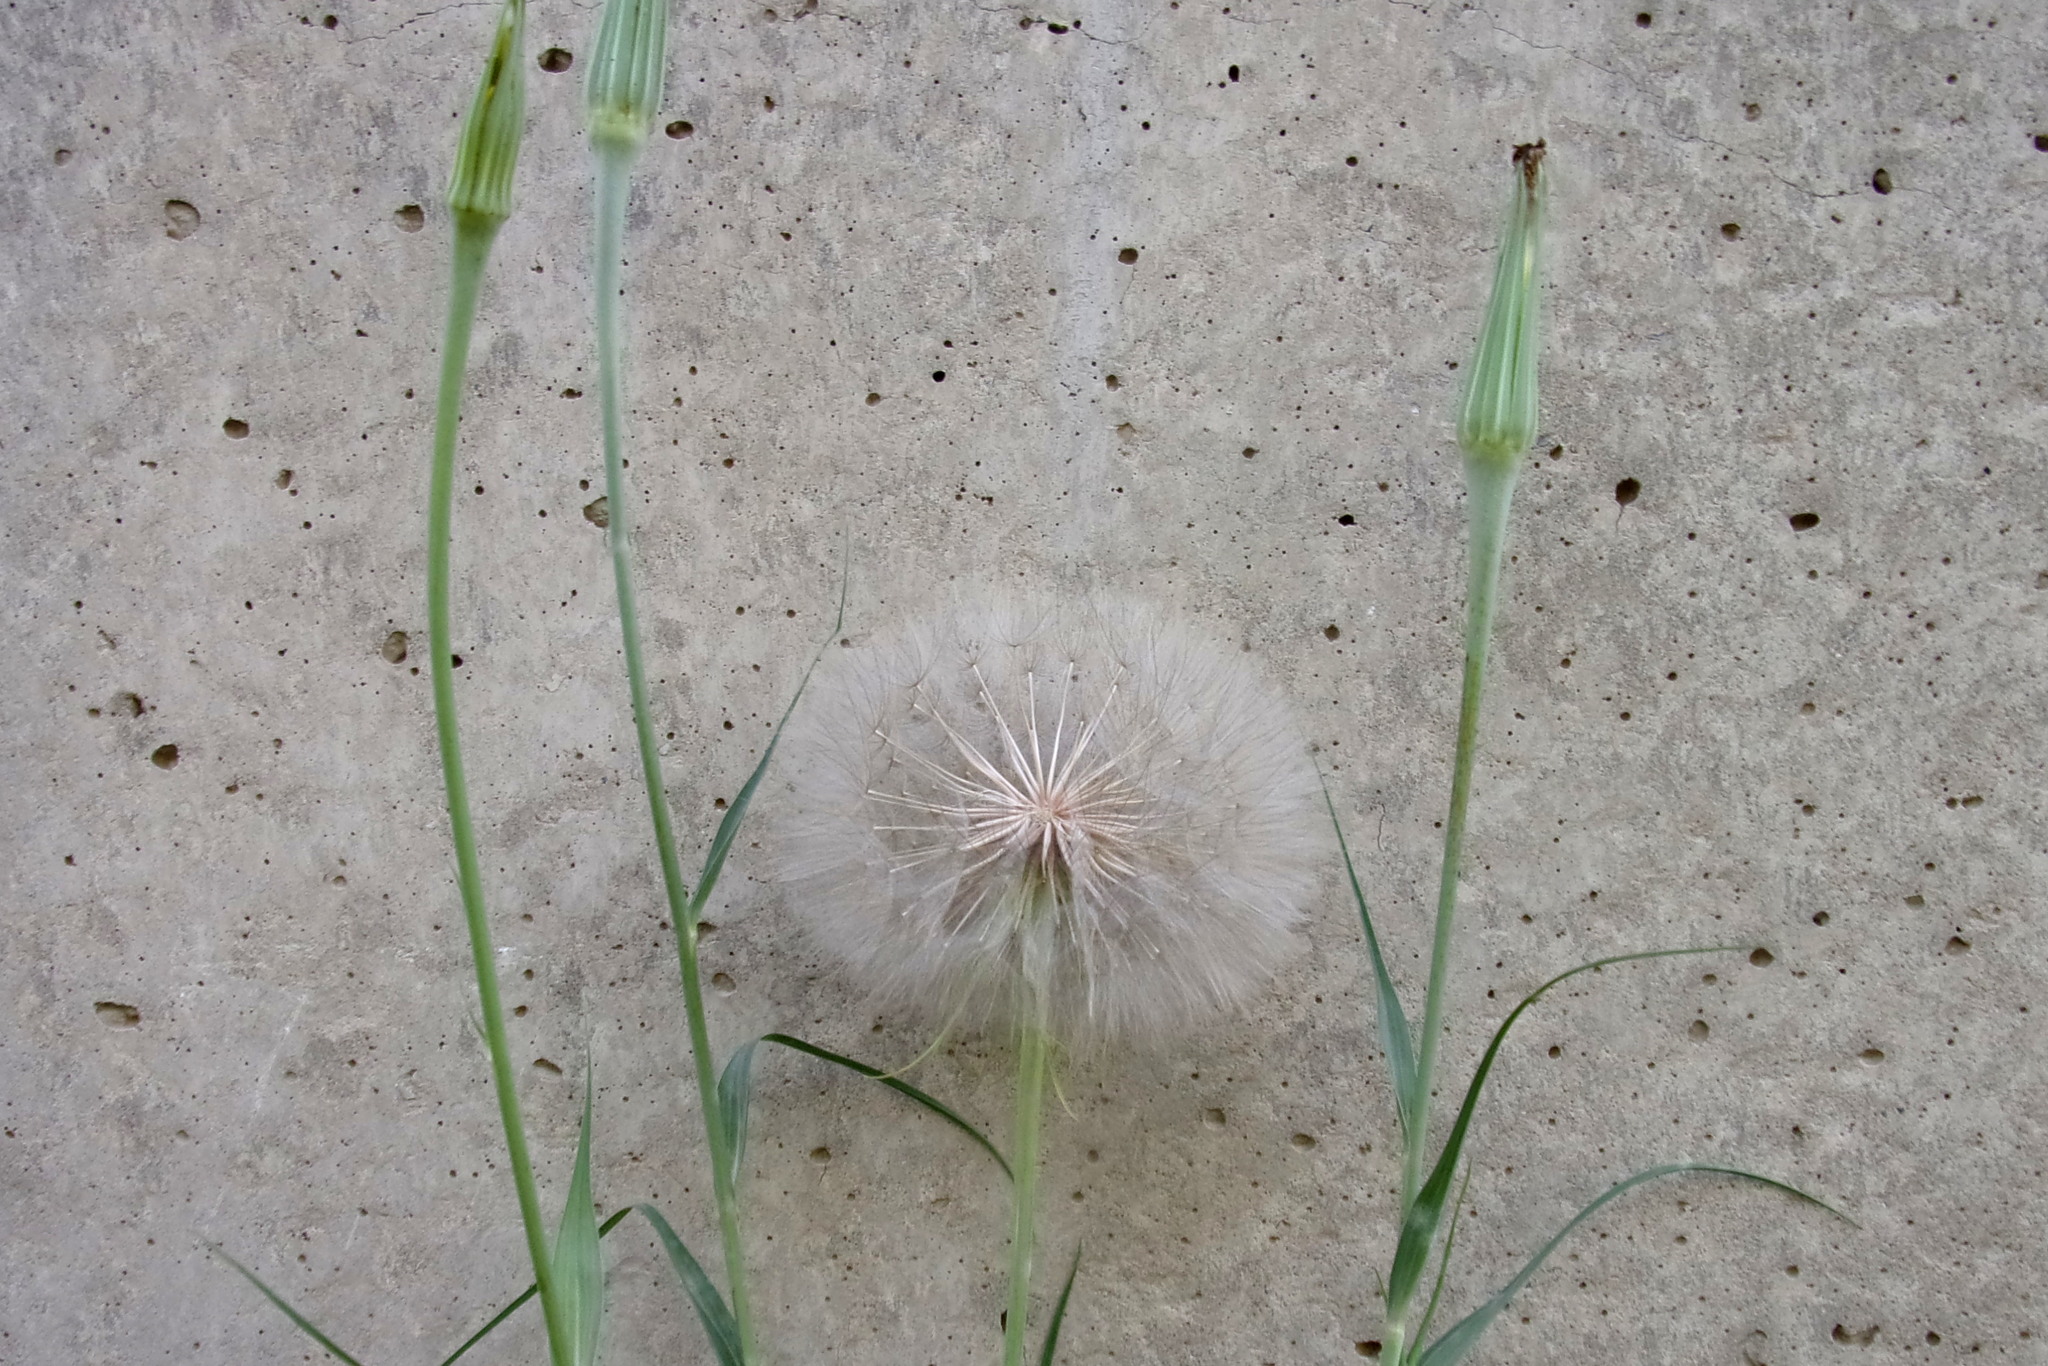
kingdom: Plantae
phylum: Tracheophyta
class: Magnoliopsida
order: Asterales
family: Asteraceae
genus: Tragopogon
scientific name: Tragopogon dubius
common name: Yellow salsify
